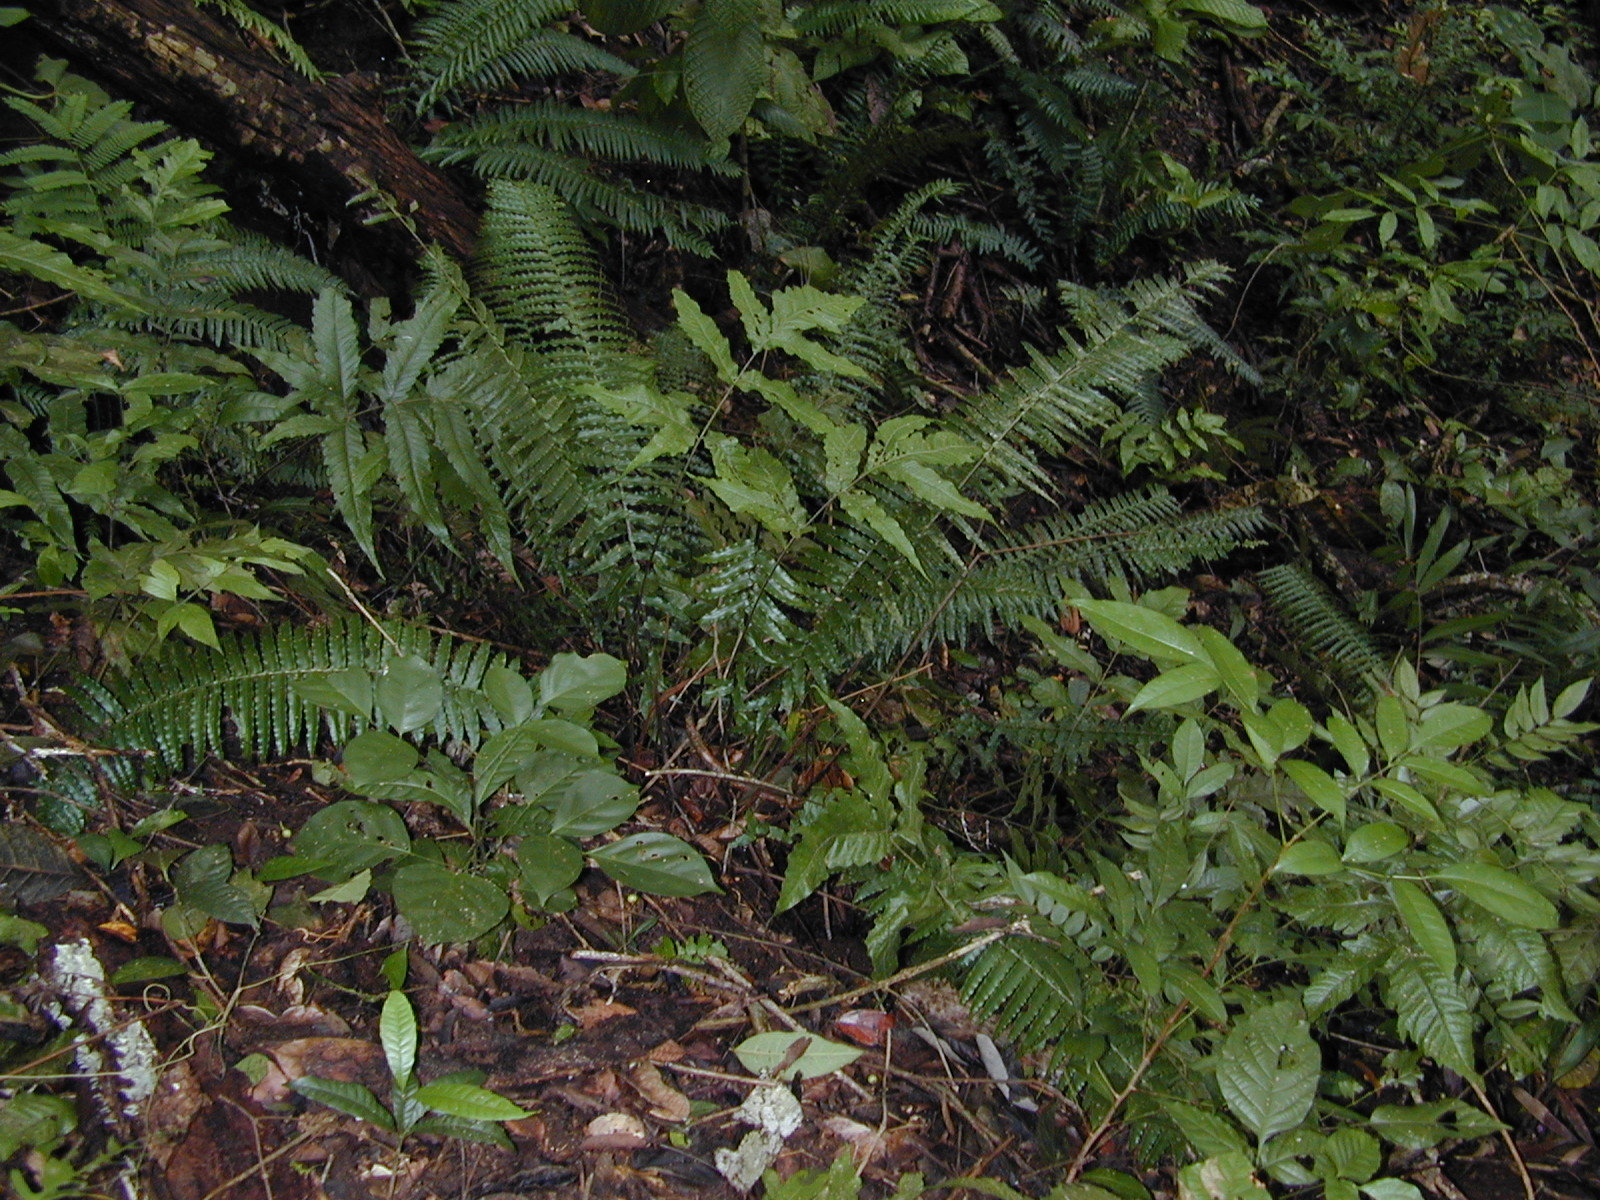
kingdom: Plantae
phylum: Tracheophyta
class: Polypodiopsida
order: Polypodiales
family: Lomariopsidaceae
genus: Cyclopeltis
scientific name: Cyclopeltis semicordata
